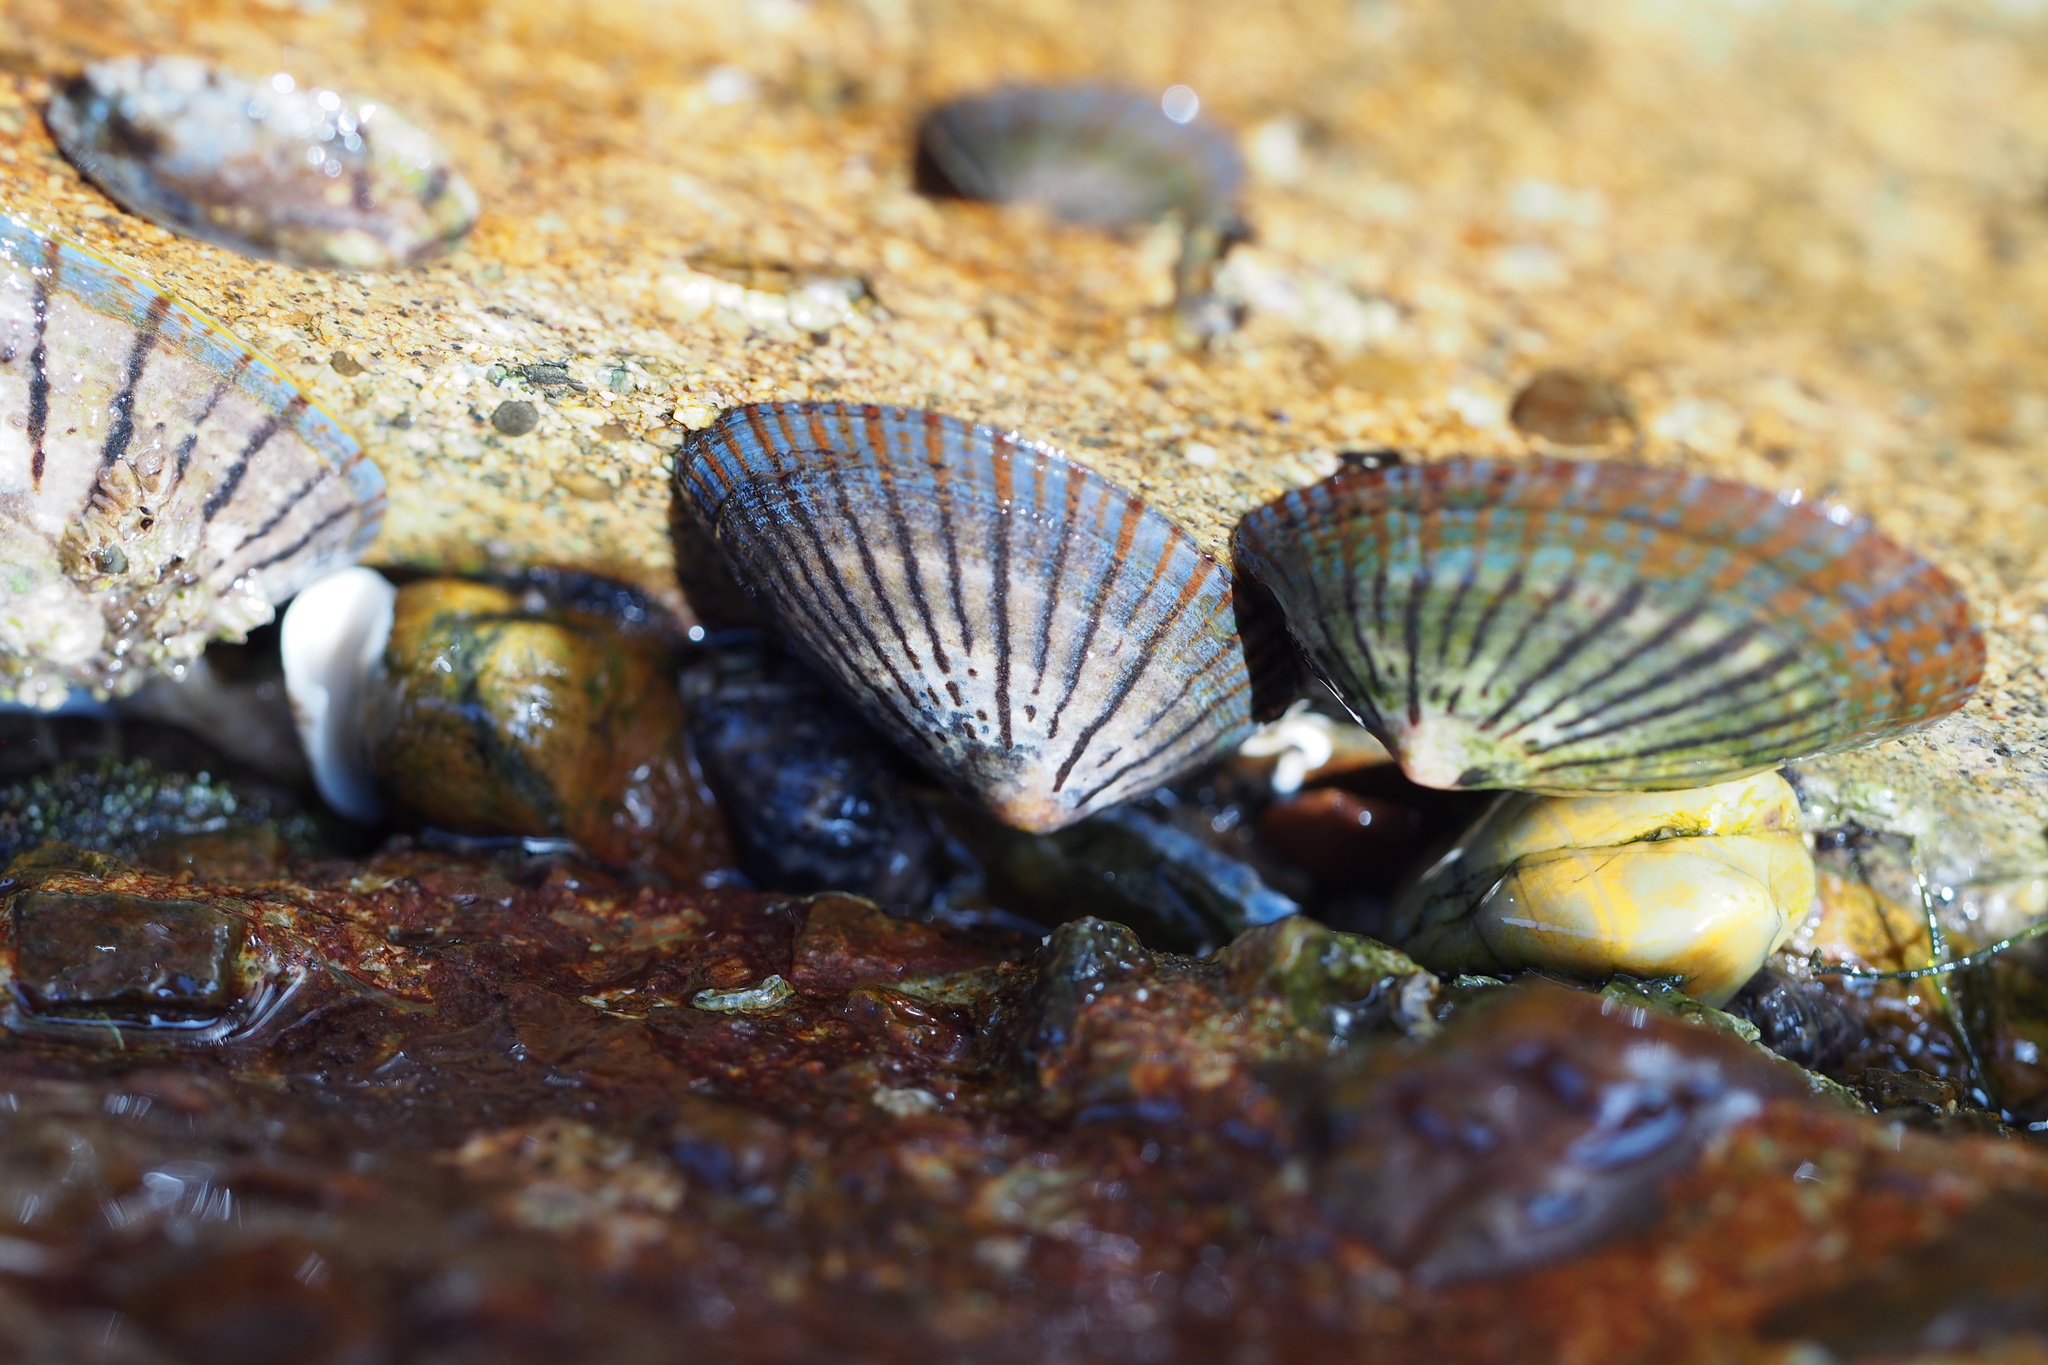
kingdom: Animalia
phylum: Mollusca
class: Gastropoda
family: Nacellidae
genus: Cellana
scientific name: Cellana nigrolineata
